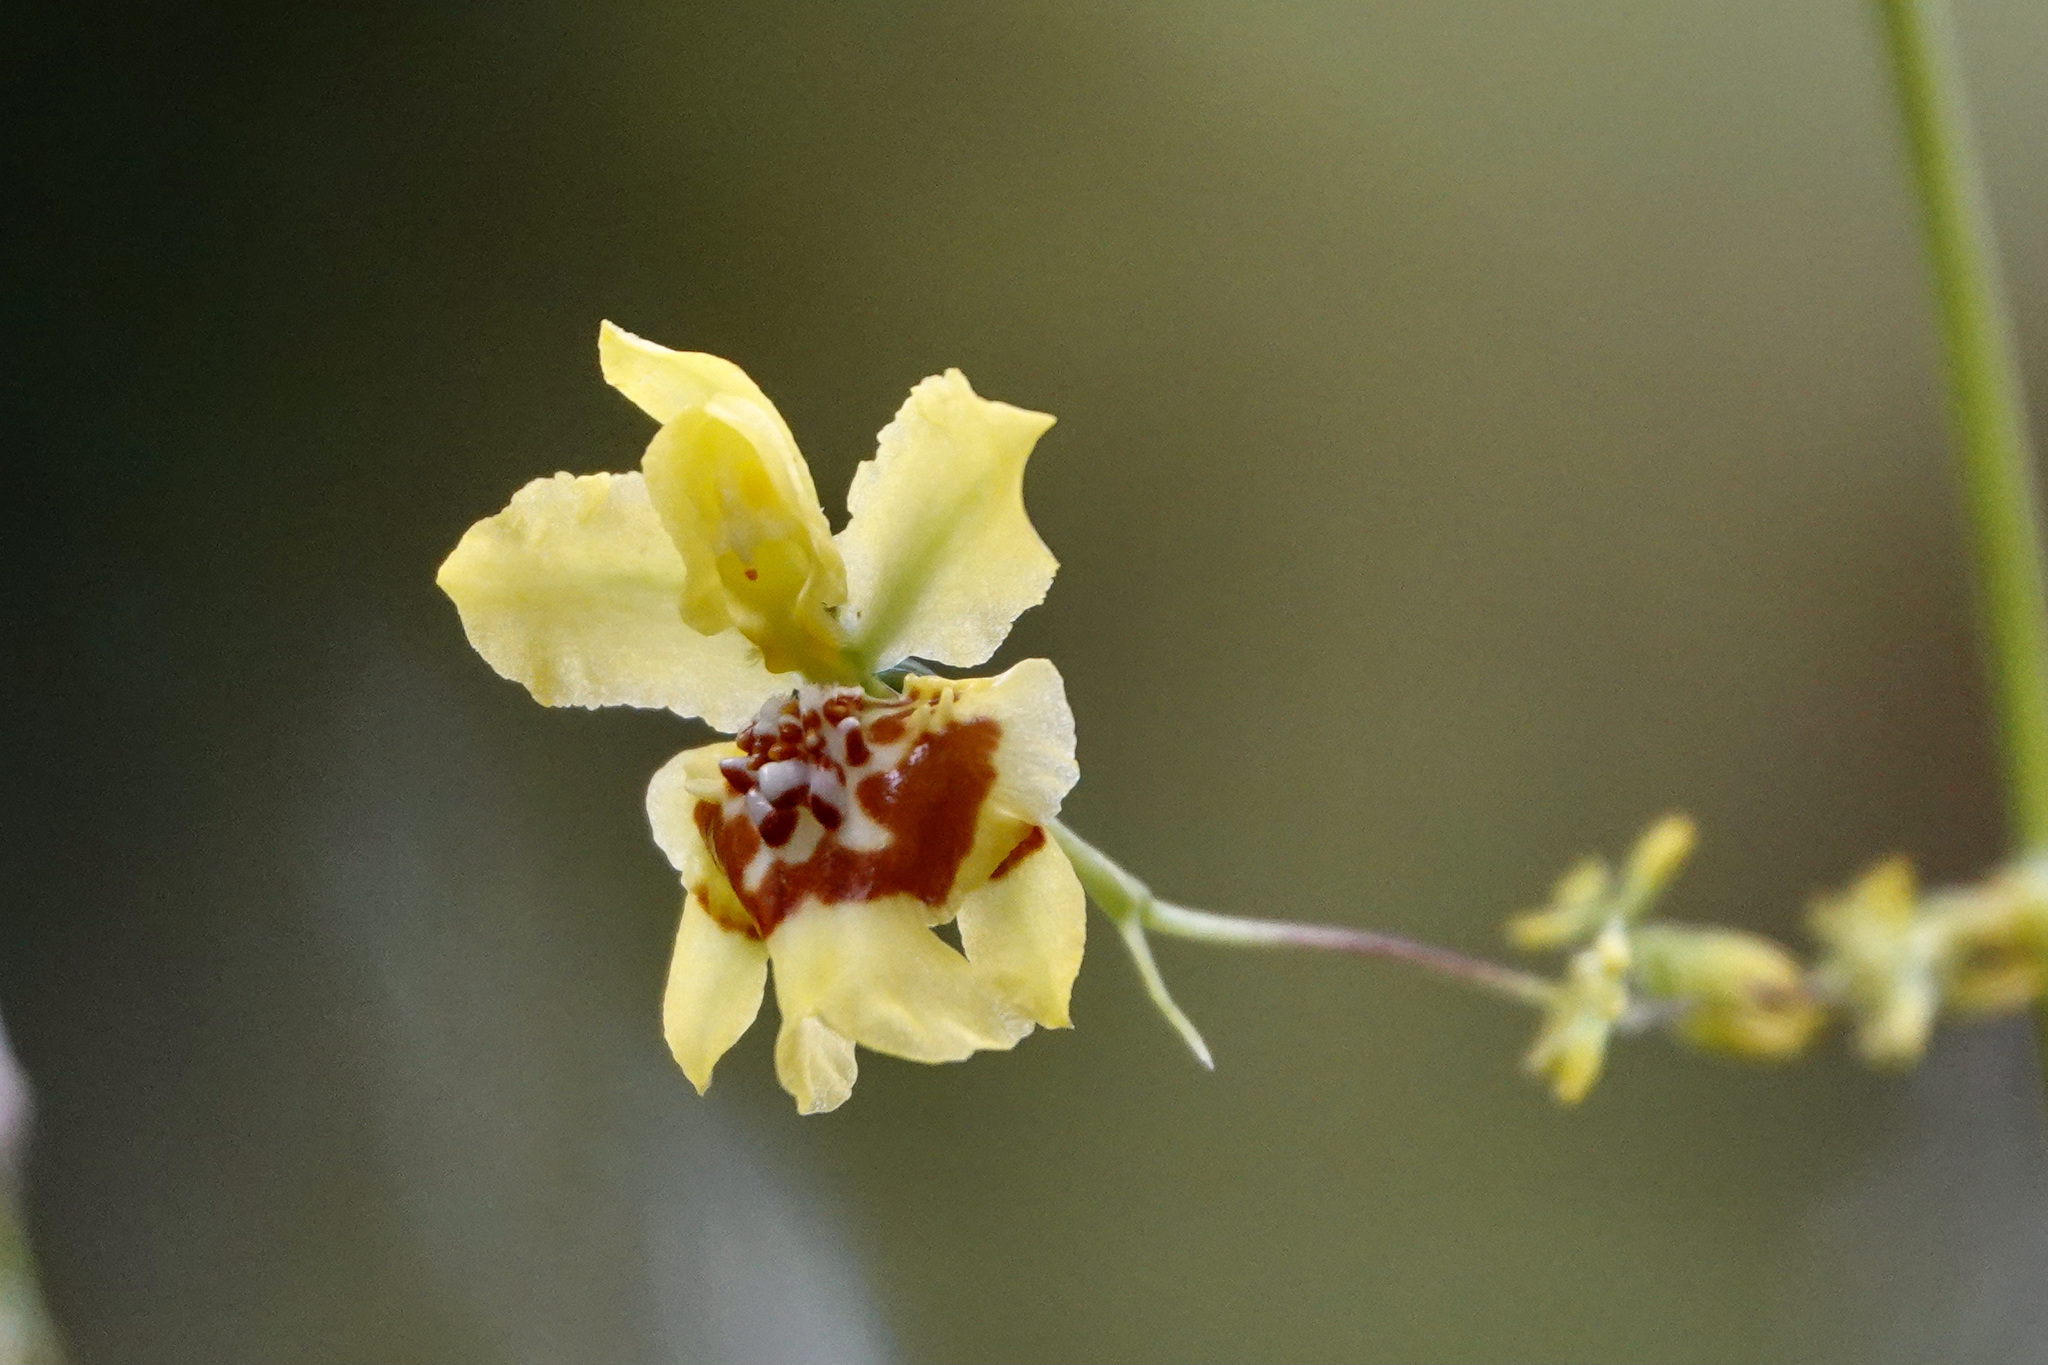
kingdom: Plantae
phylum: Tracheophyta
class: Liliopsida
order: Asparagales
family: Orchidaceae
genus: Oncidium
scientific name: Oncidium adelaidae
